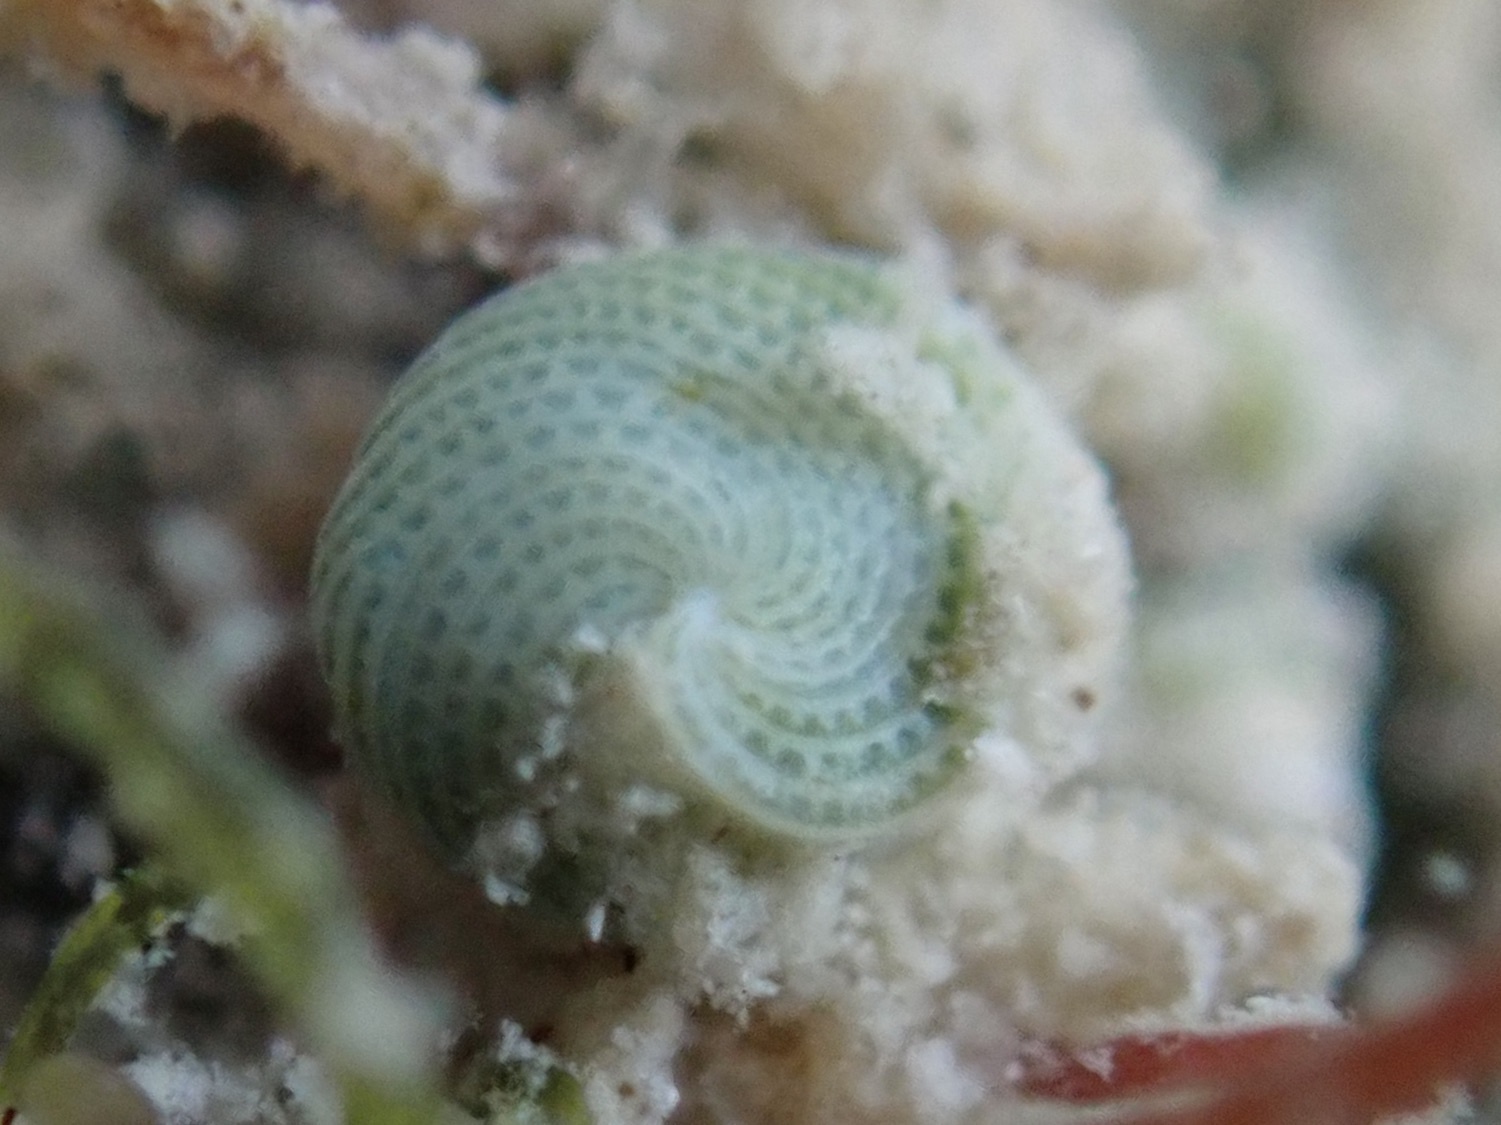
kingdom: Chromista
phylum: Foraminifera
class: Globothalamea
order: Rotaliida
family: Elphidiidae
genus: Elphidium
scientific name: Elphidium macellum
